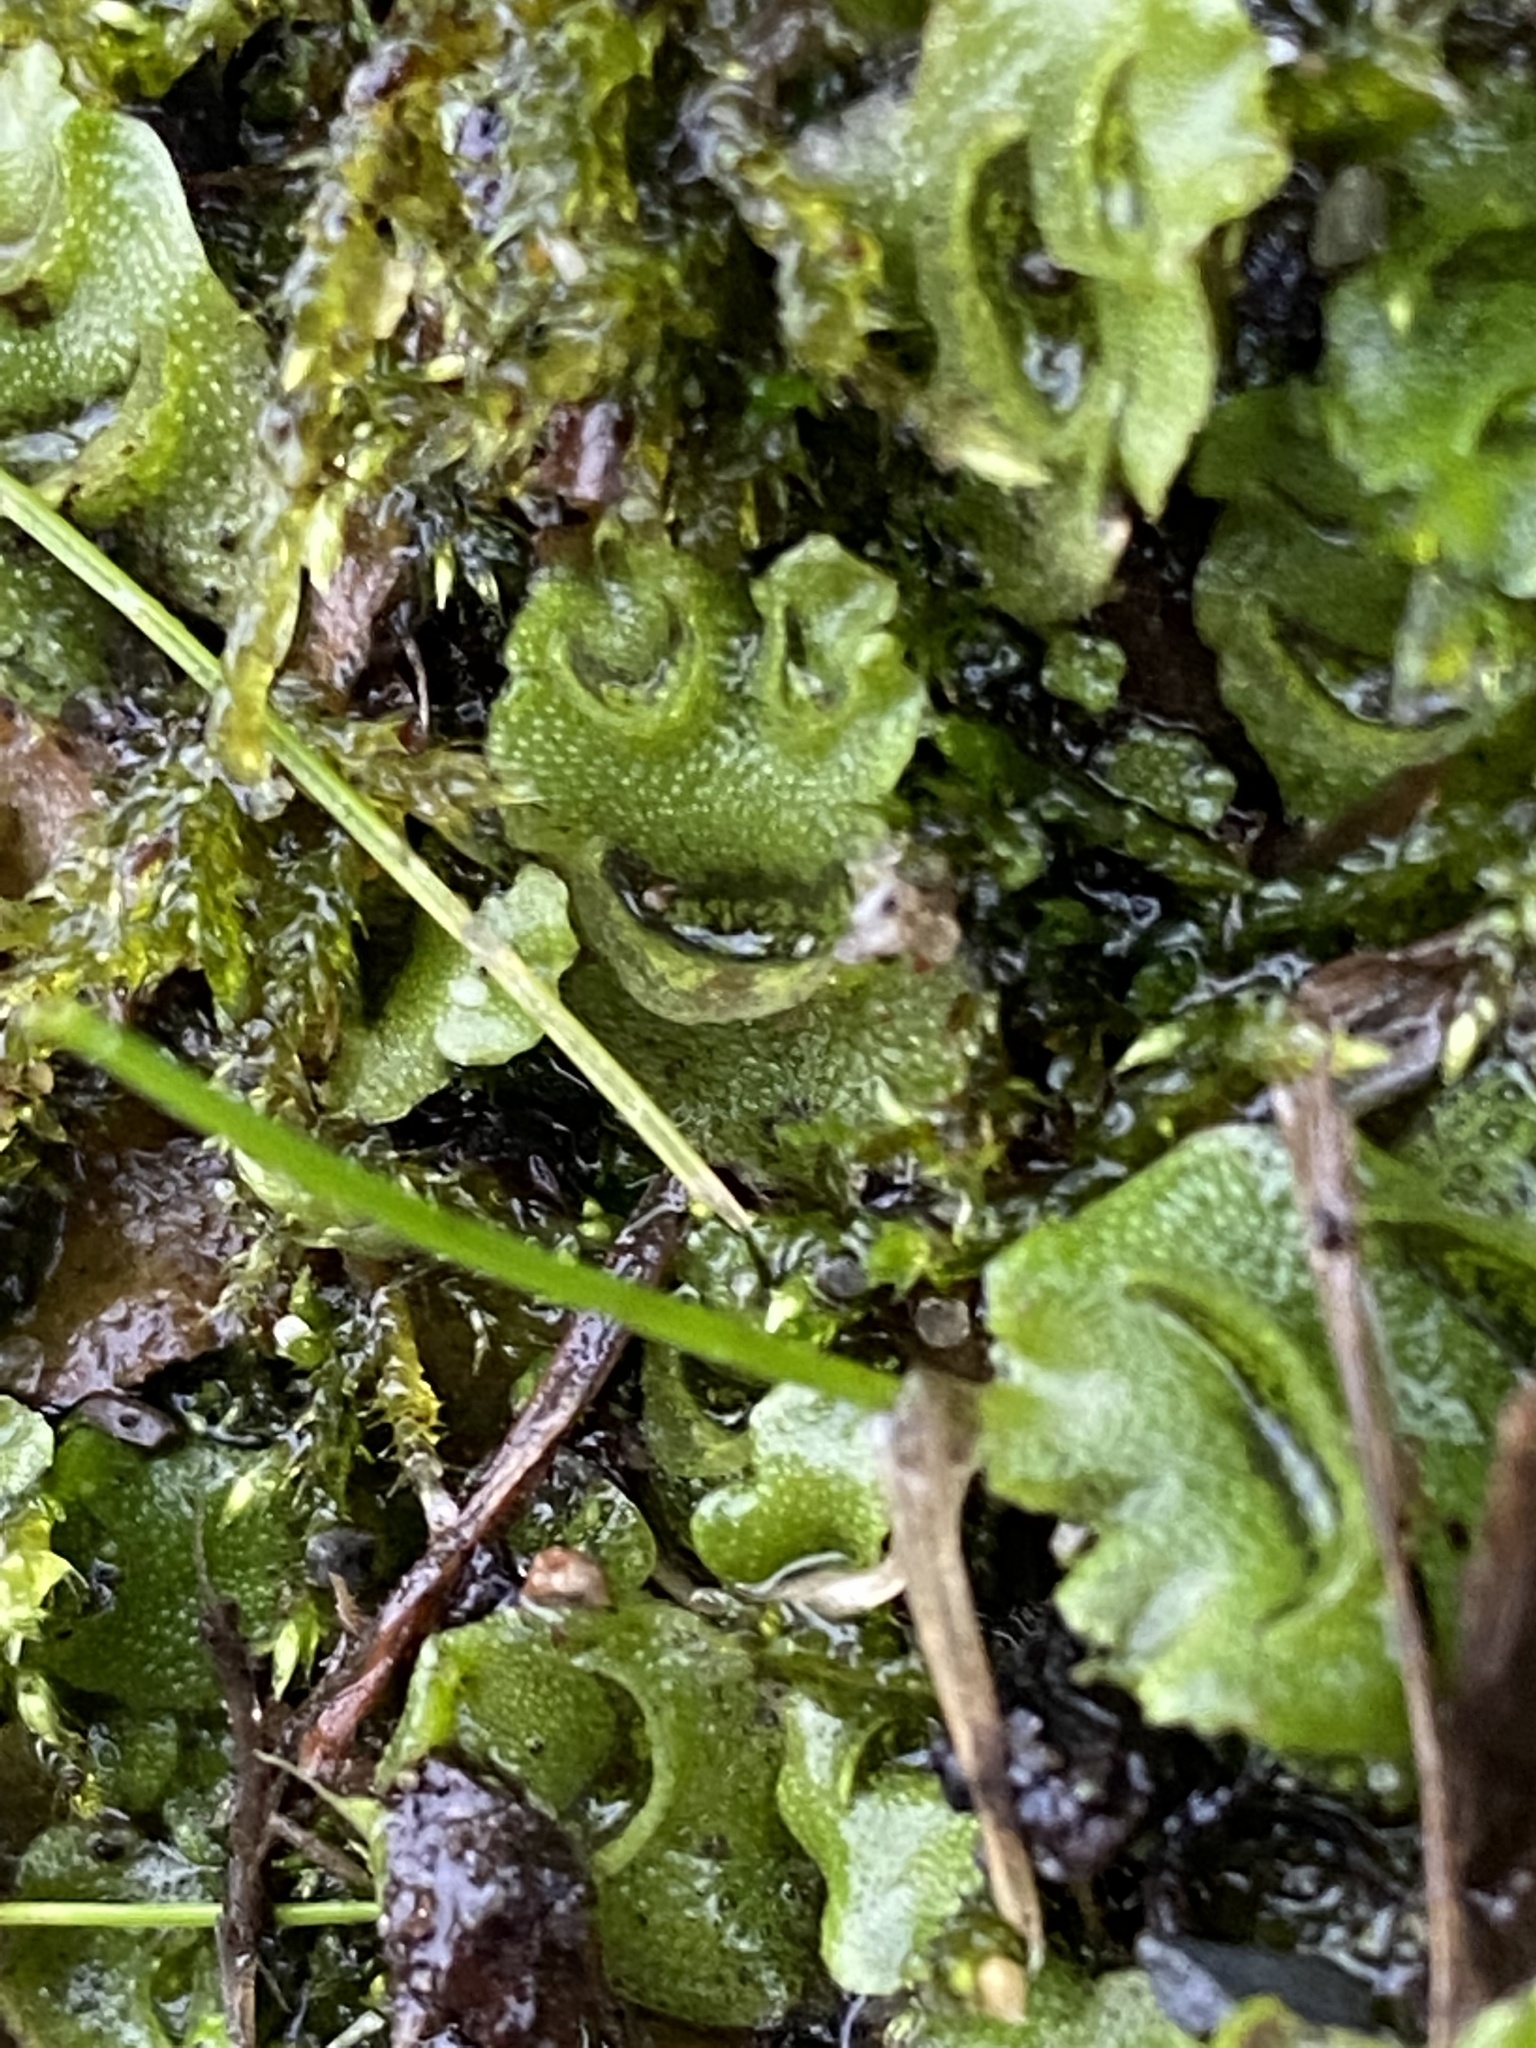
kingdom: Plantae
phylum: Marchantiophyta
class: Marchantiopsida
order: Lunulariales
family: Lunulariaceae
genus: Lunularia
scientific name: Lunularia cruciata
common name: Crescent-cup liverwort
